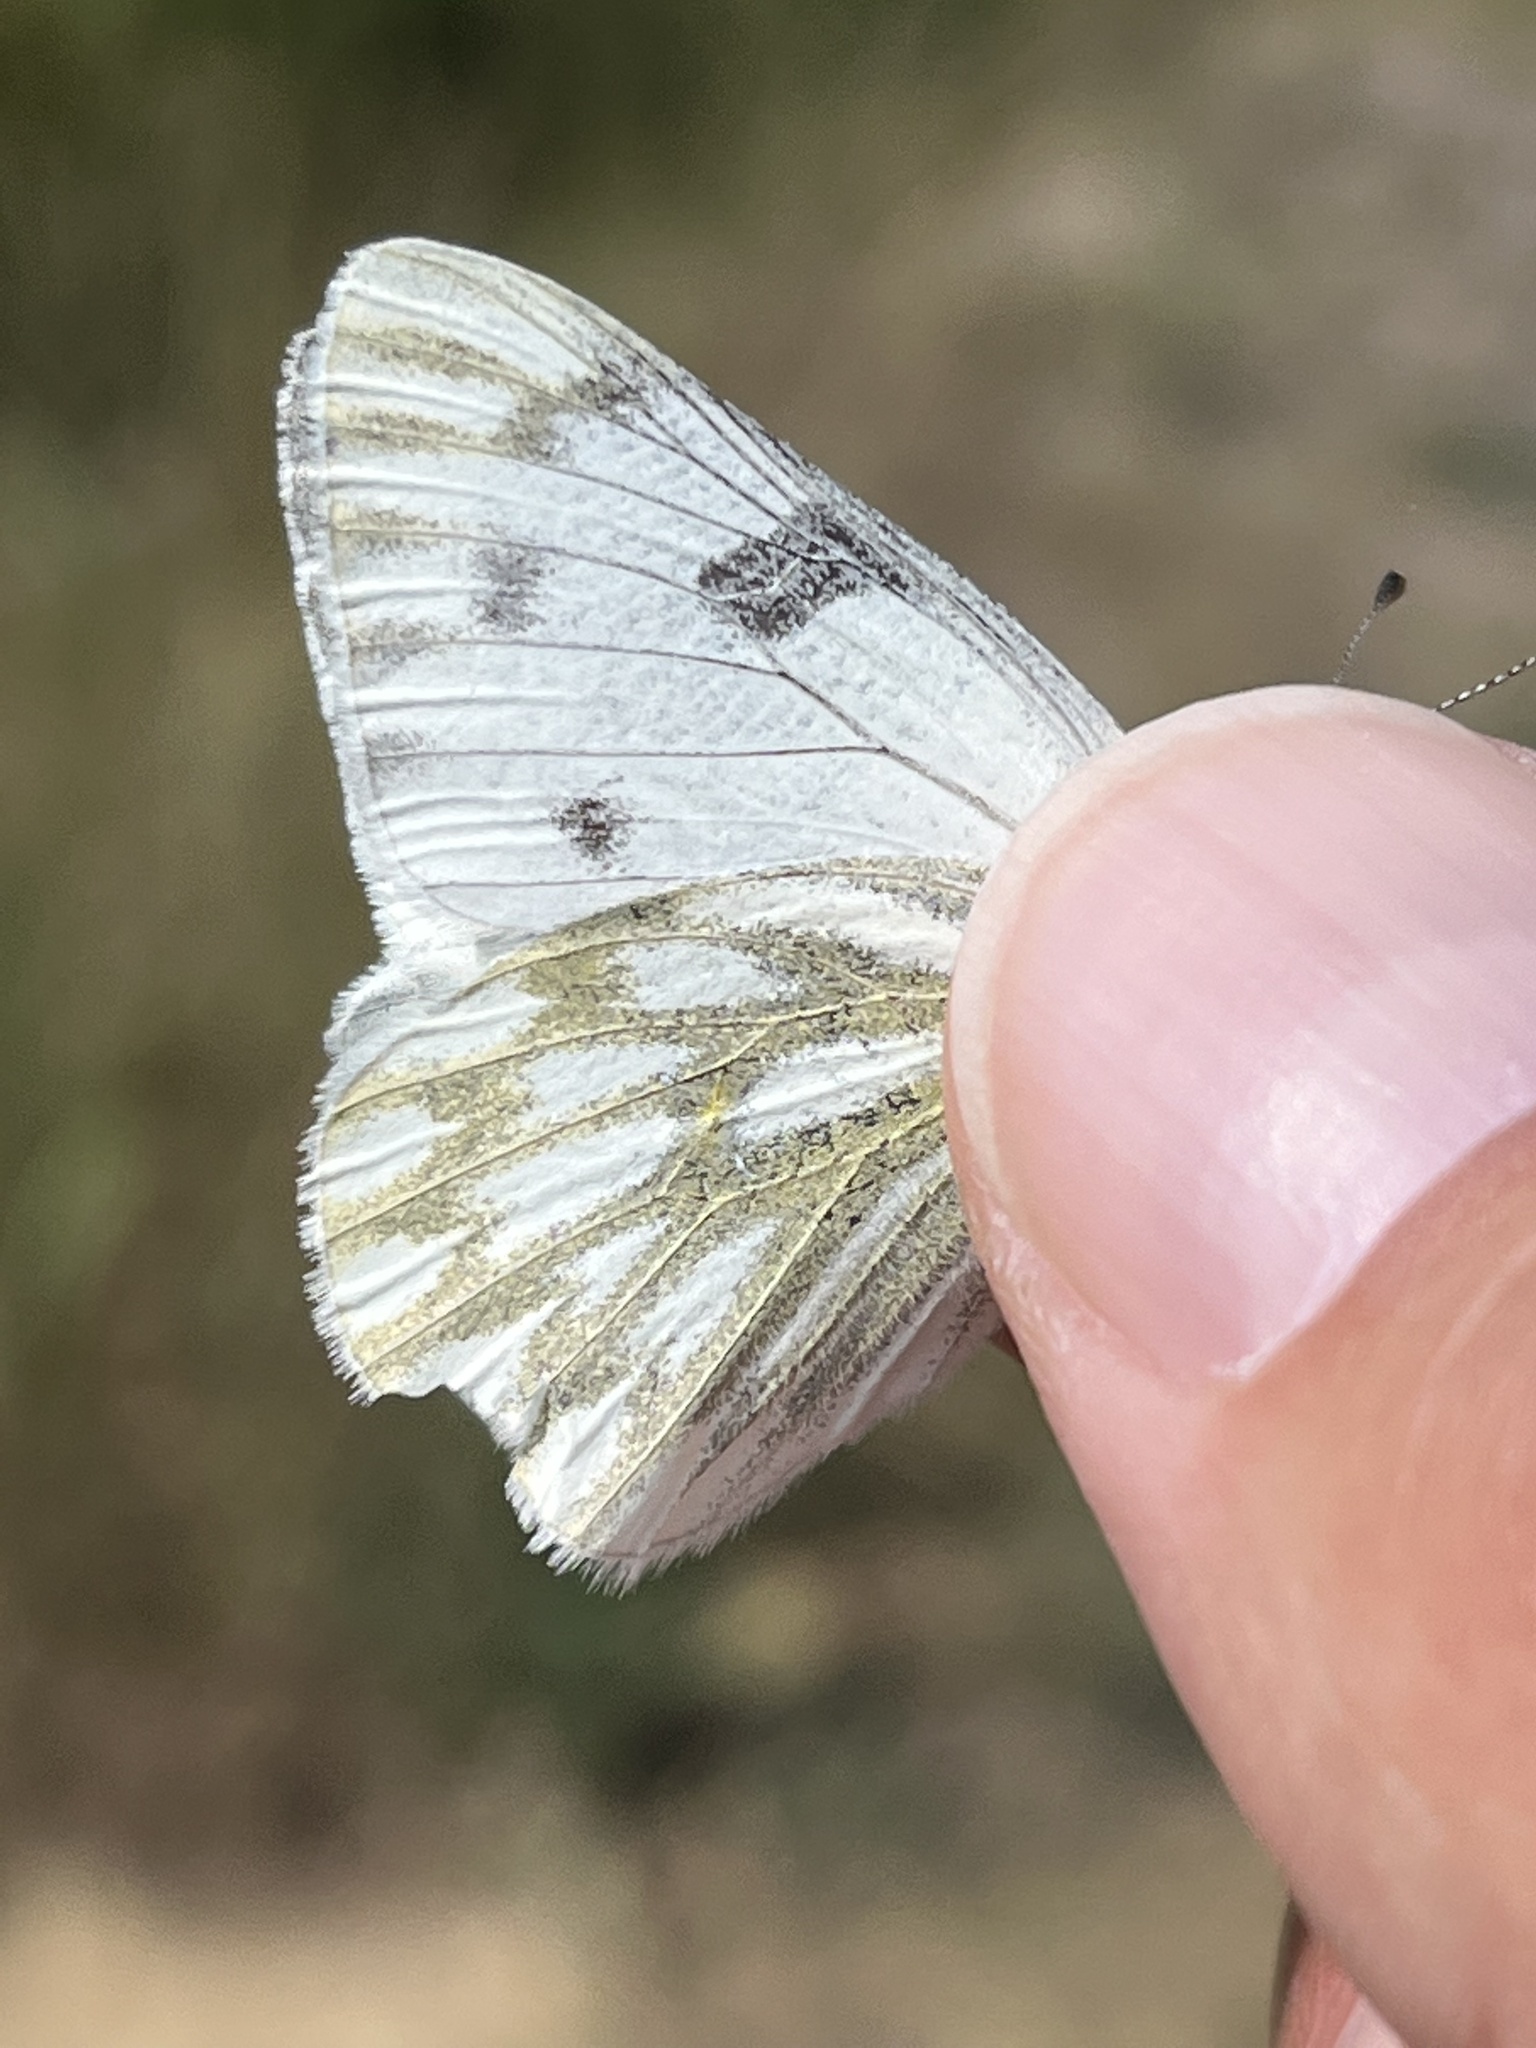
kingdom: Animalia
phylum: Arthropoda
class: Insecta
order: Lepidoptera
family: Pieridae
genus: Pontia
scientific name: Pontia occidentalis
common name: Western white
